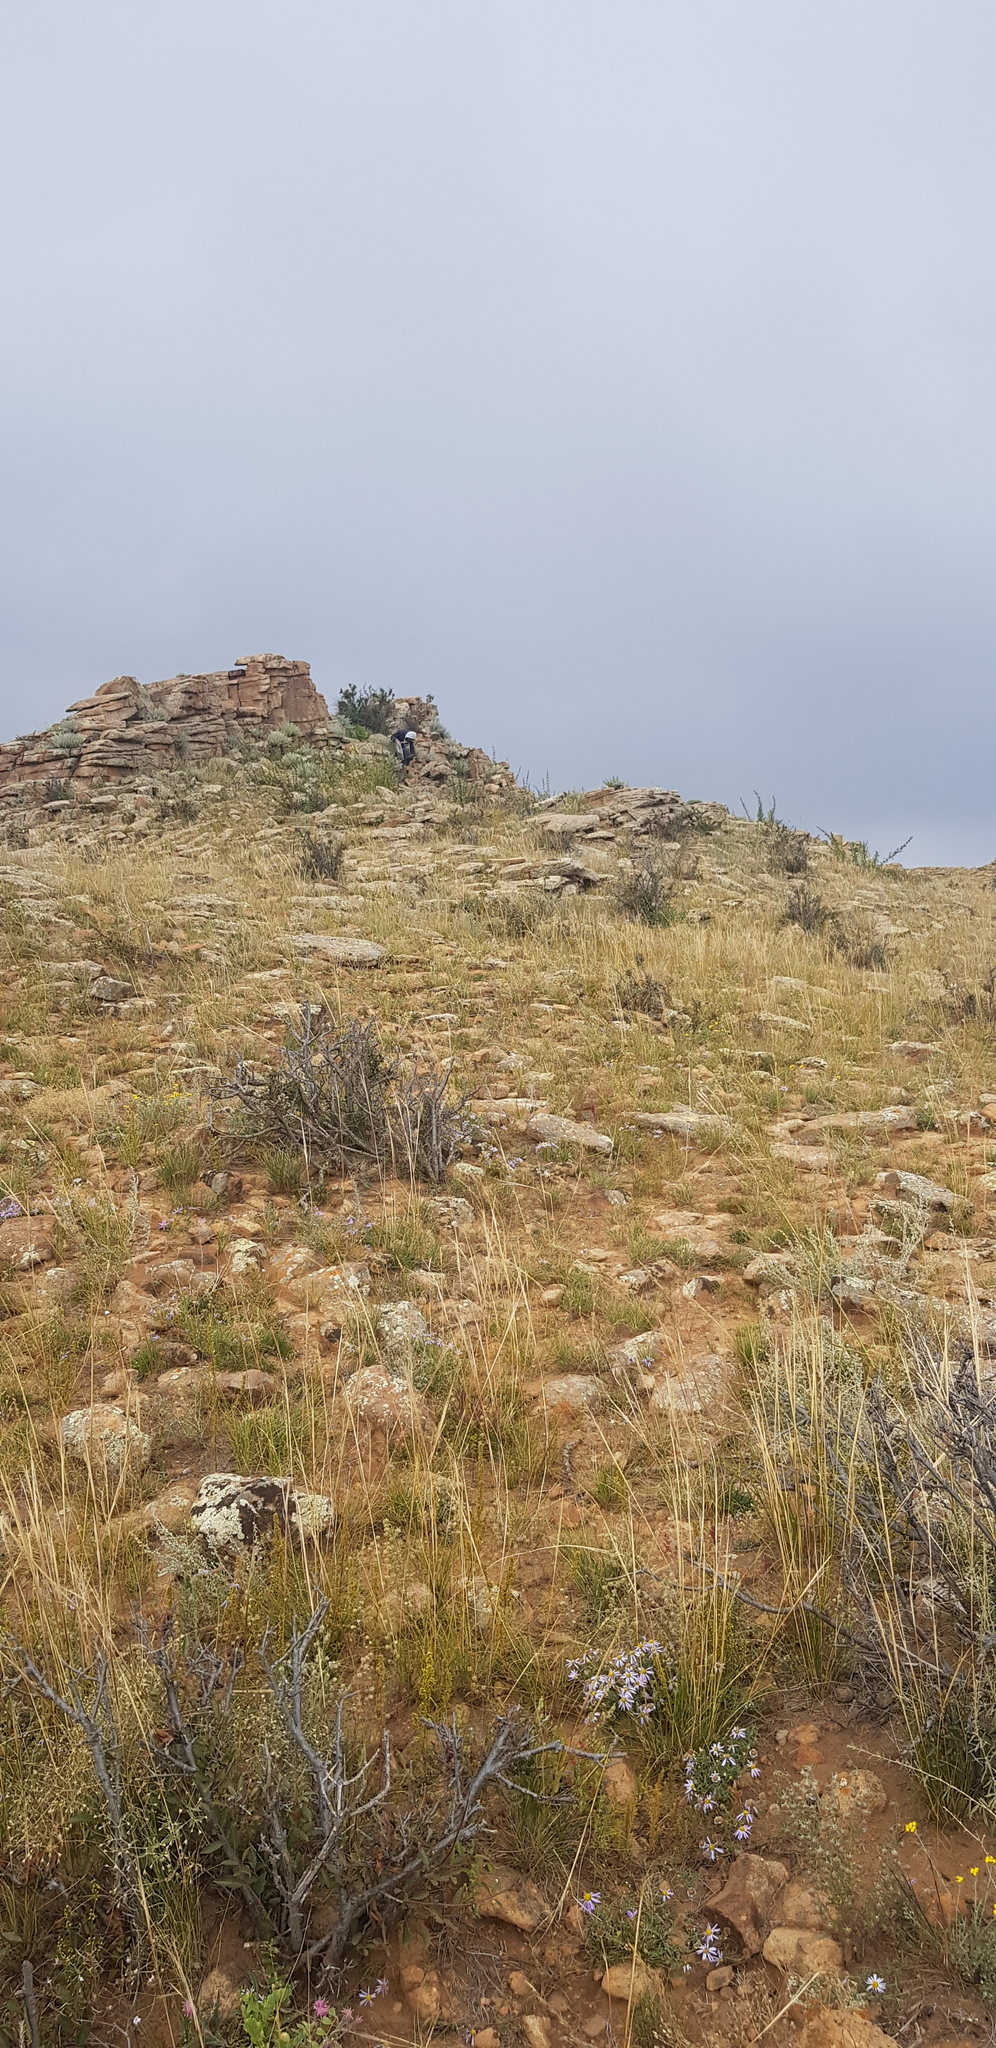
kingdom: Plantae
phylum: Tracheophyta
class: Magnoliopsida
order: Rosales
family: Rosaceae
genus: Prunus
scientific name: Prunus pedunculata
